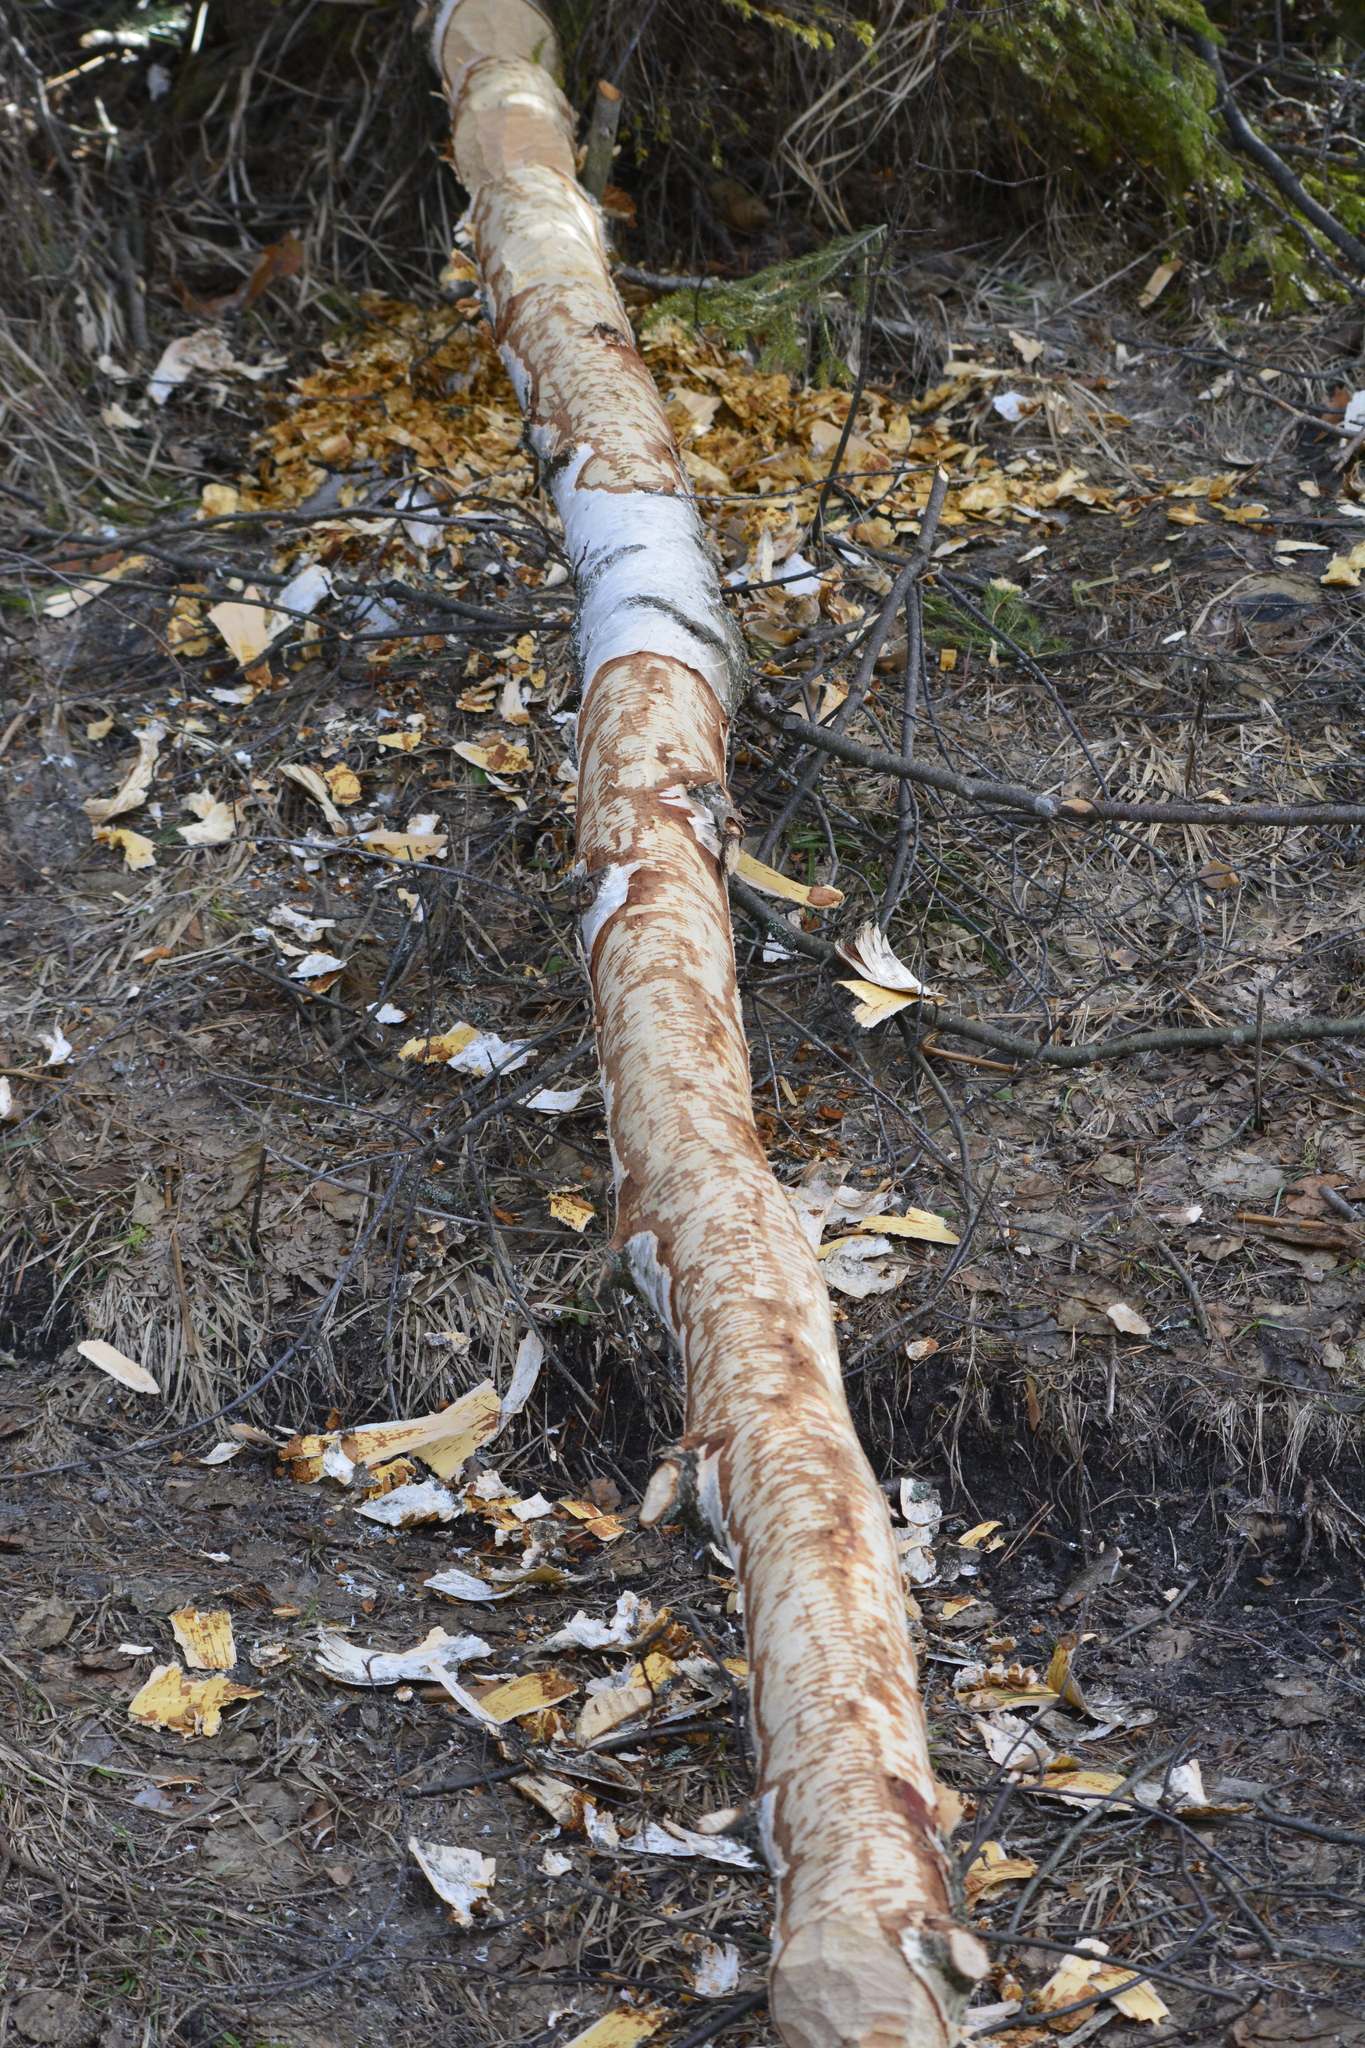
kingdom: Animalia
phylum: Chordata
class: Mammalia
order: Rodentia
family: Castoridae
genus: Castor
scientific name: Castor fiber
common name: Eurasian beaver
